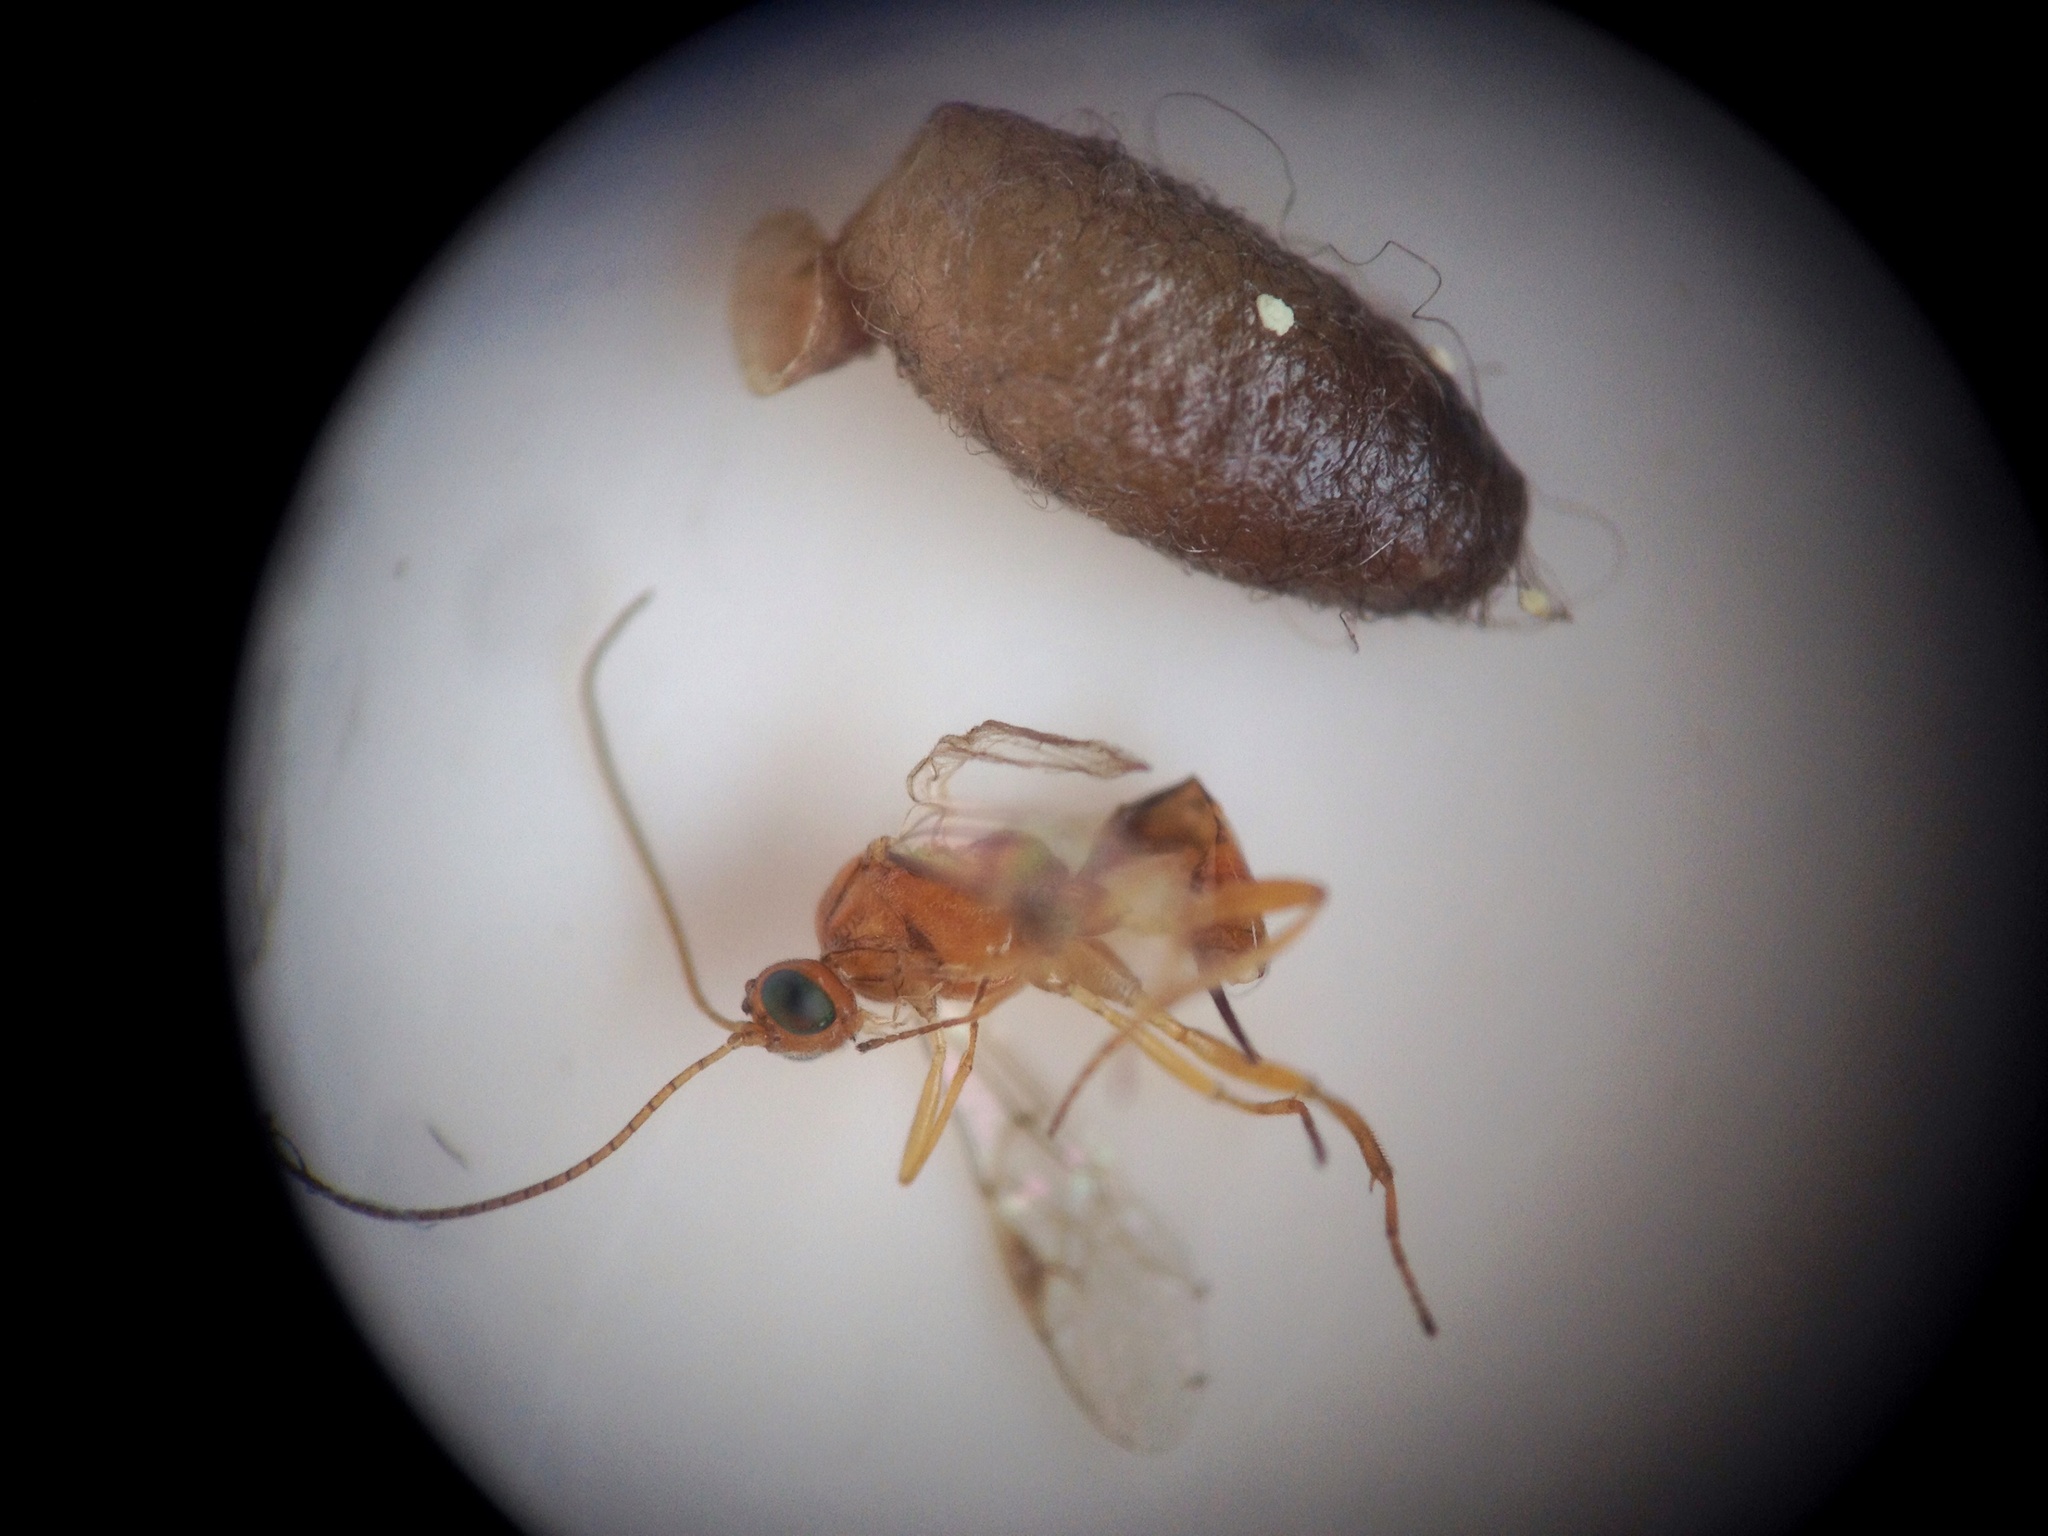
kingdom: Animalia
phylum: Arthropoda
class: Insecta
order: Hymenoptera
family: Braconidae
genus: Meteorus
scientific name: Meteorus pulchricornis
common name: Braconid wasp
